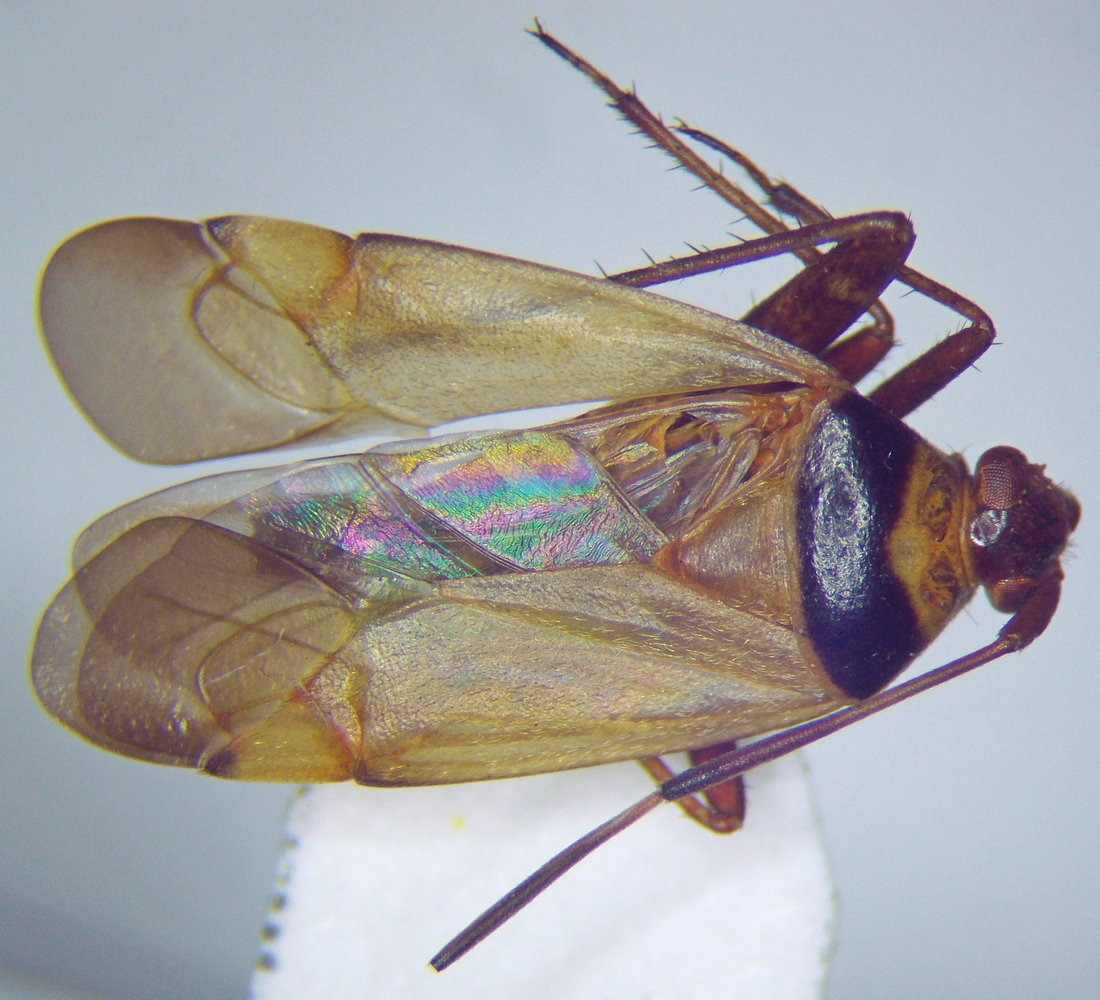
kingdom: Animalia
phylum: Arthropoda
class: Insecta
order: Hemiptera
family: Miridae
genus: Adelphocoris
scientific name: Adelphocoris vandalicus
